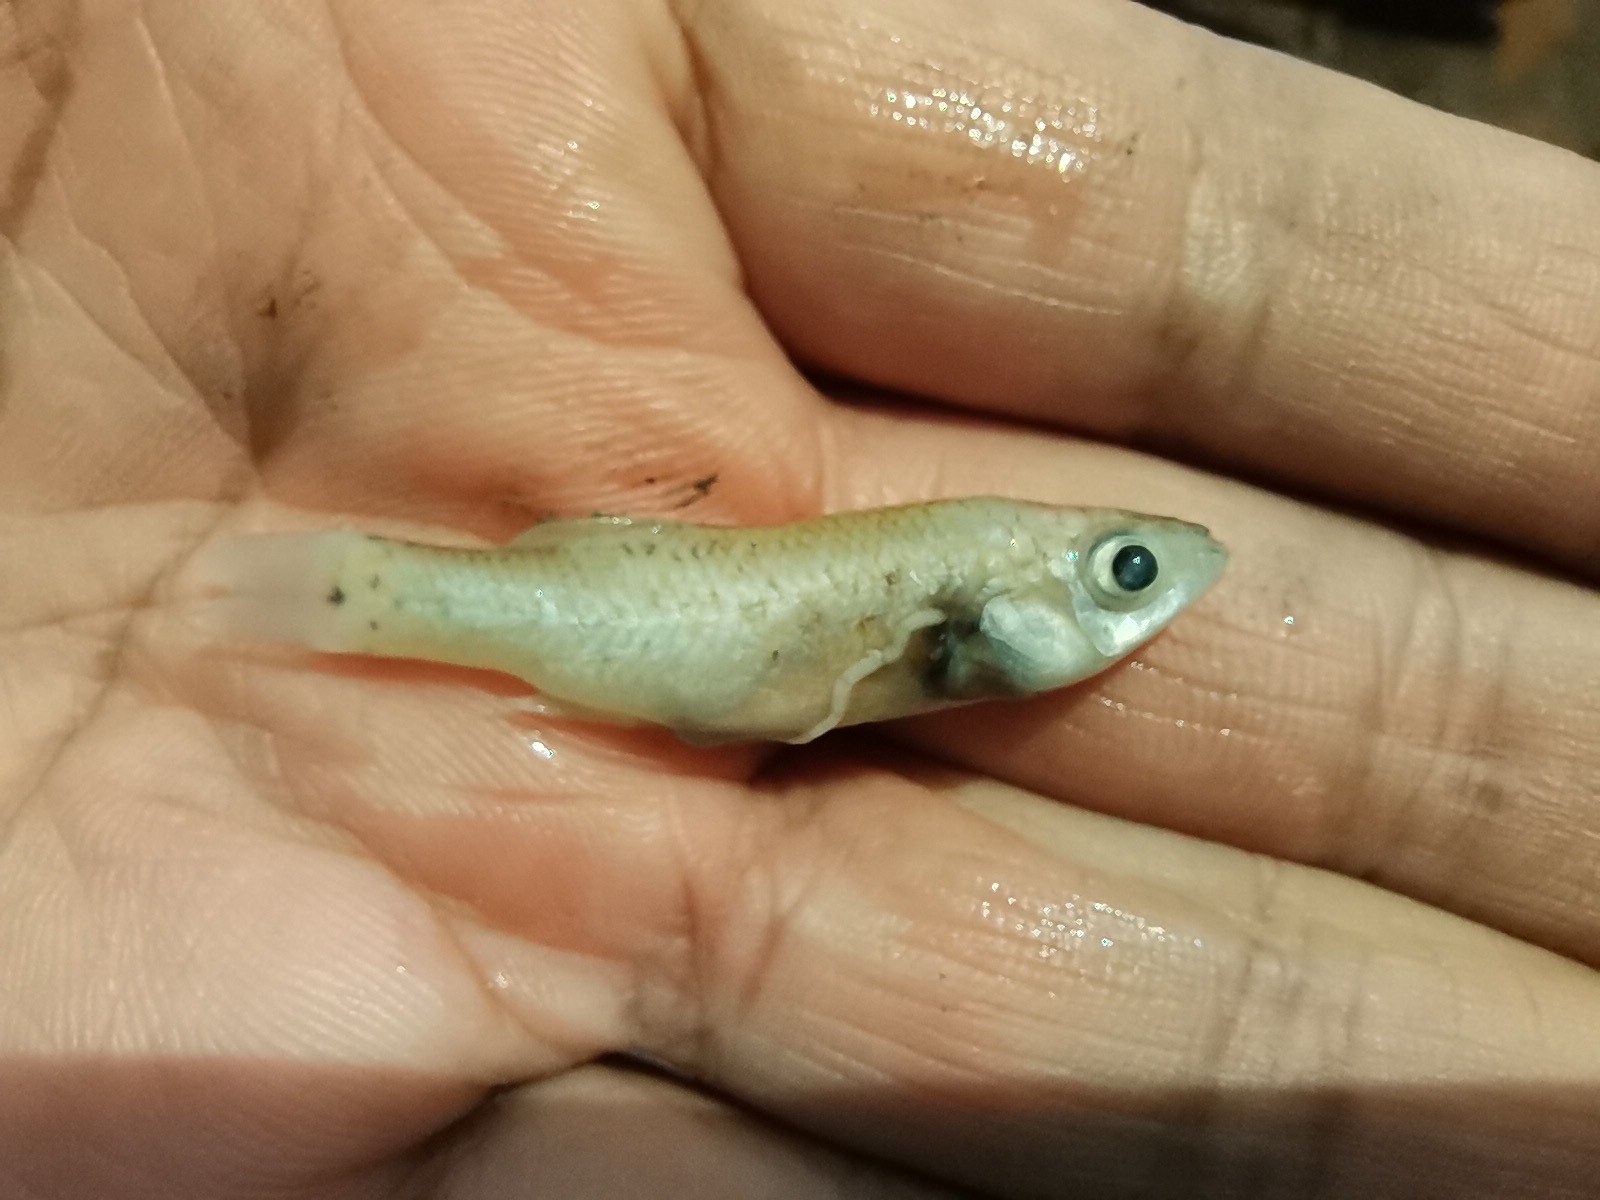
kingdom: Animalia
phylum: Chordata
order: Cyprinodontiformes
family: Poeciliidae
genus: Poeciliopsis
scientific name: Poeciliopsis gracilis
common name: Porthole livebearer
